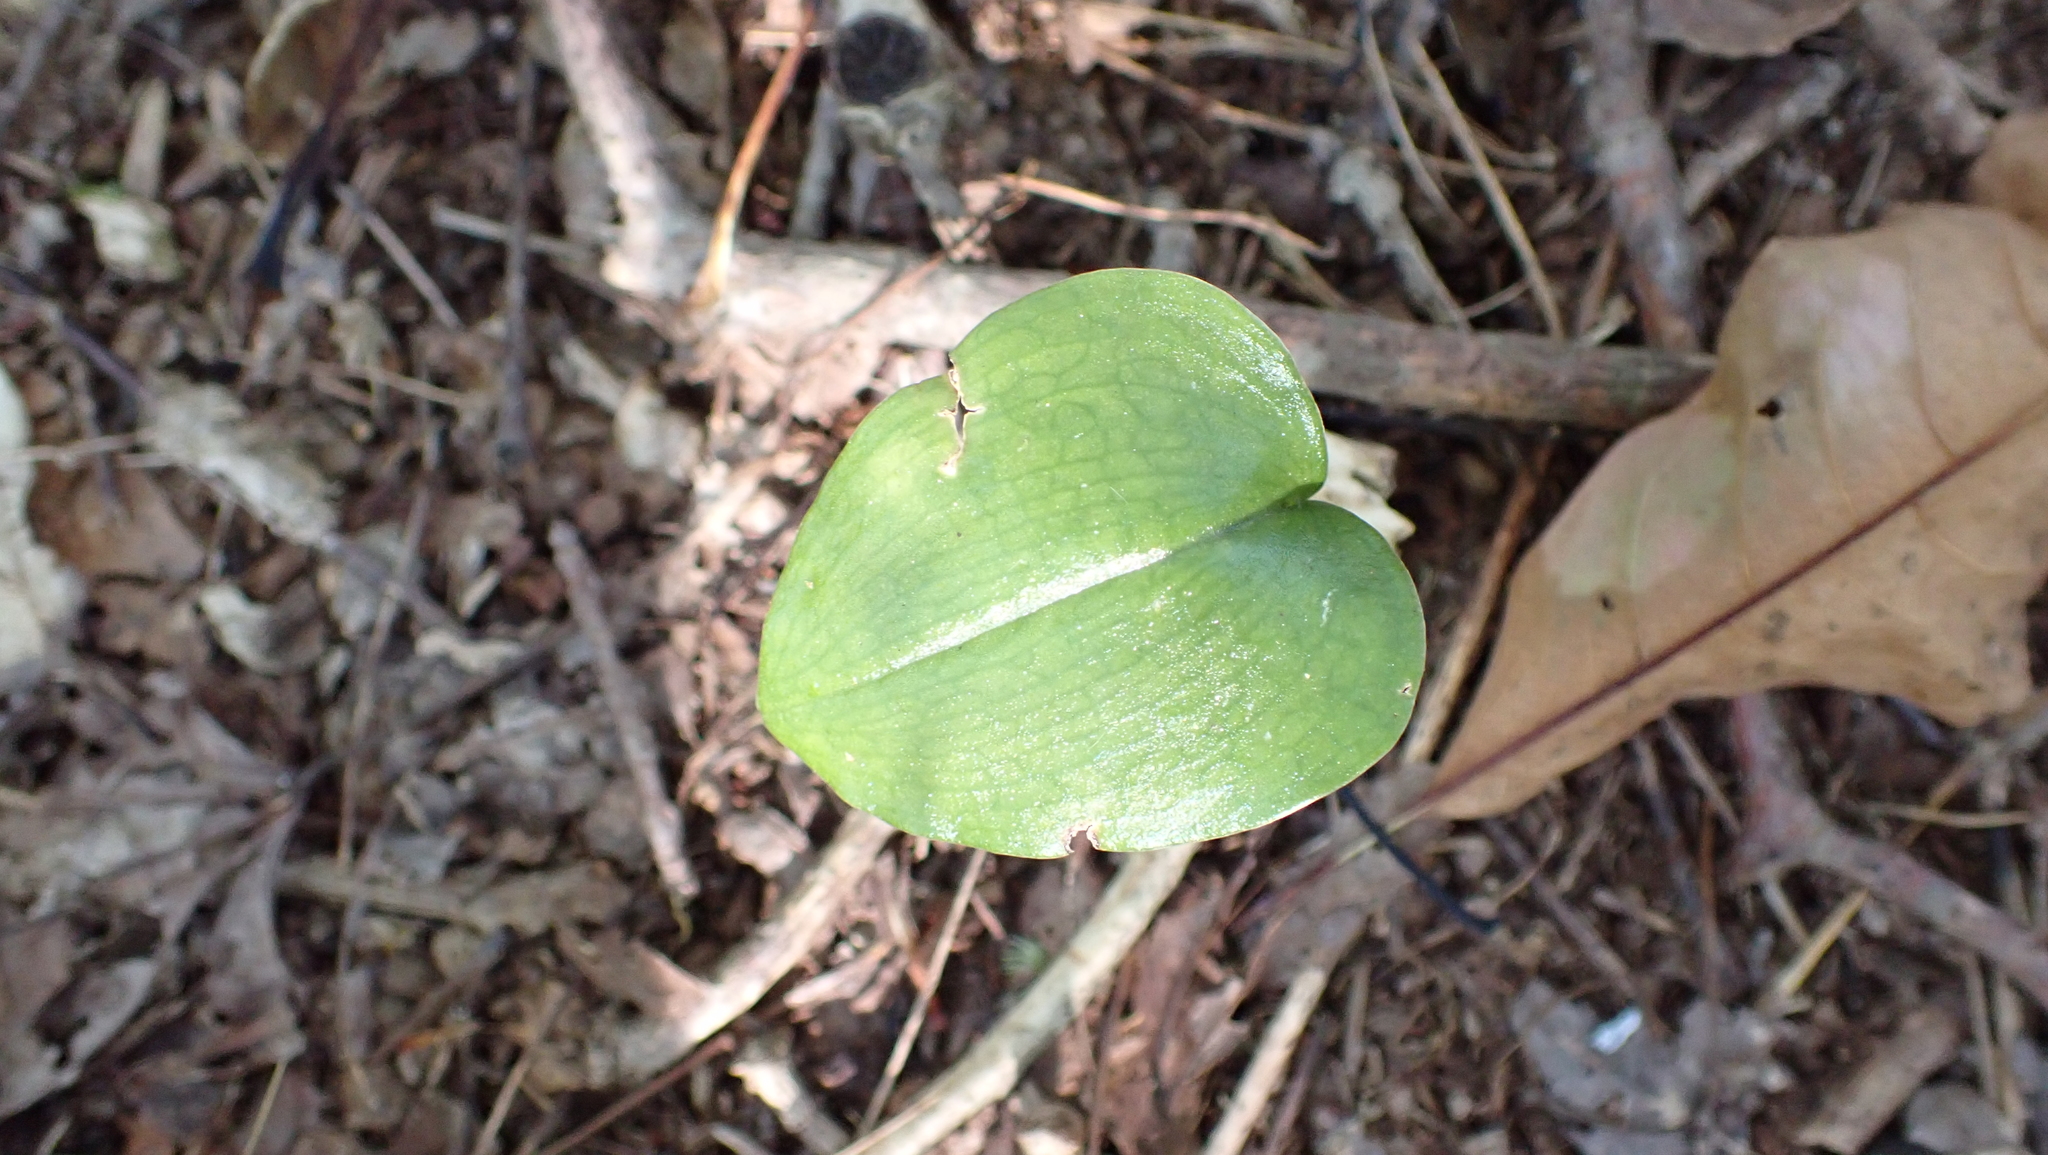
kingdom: Plantae
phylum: Tracheophyta
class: Liliopsida
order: Asparagales
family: Orchidaceae
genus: Malaxis
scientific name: Malaxis unifolia
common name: Green adder's-mouth
